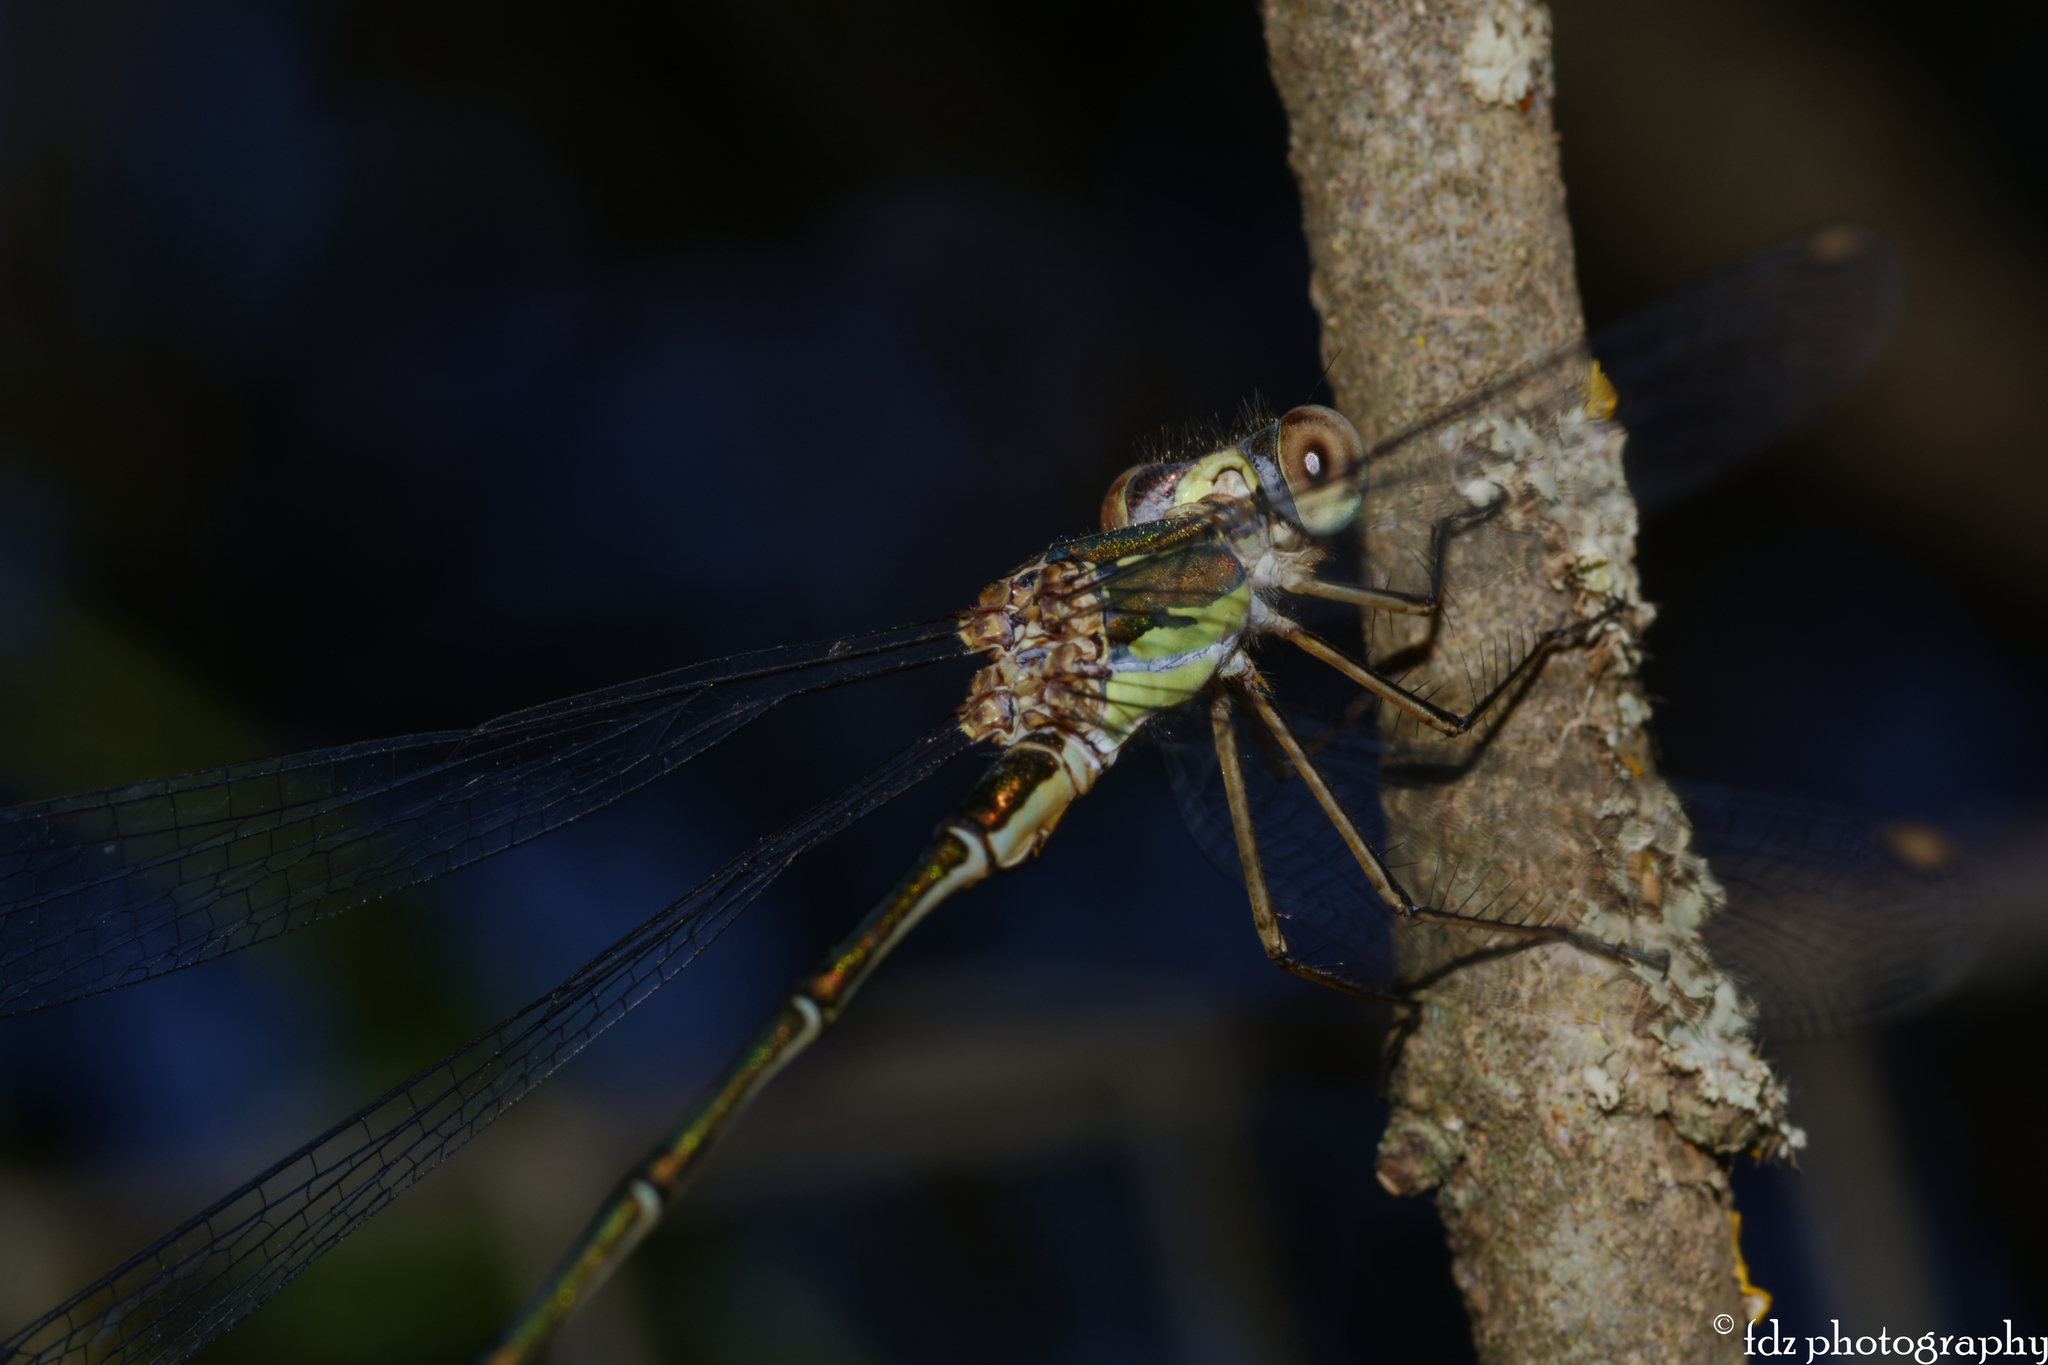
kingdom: Animalia
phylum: Arthropoda
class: Insecta
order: Odonata
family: Lestidae
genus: Chalcolestes
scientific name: Chalcolestes viridis
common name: Green emerald damselfly
